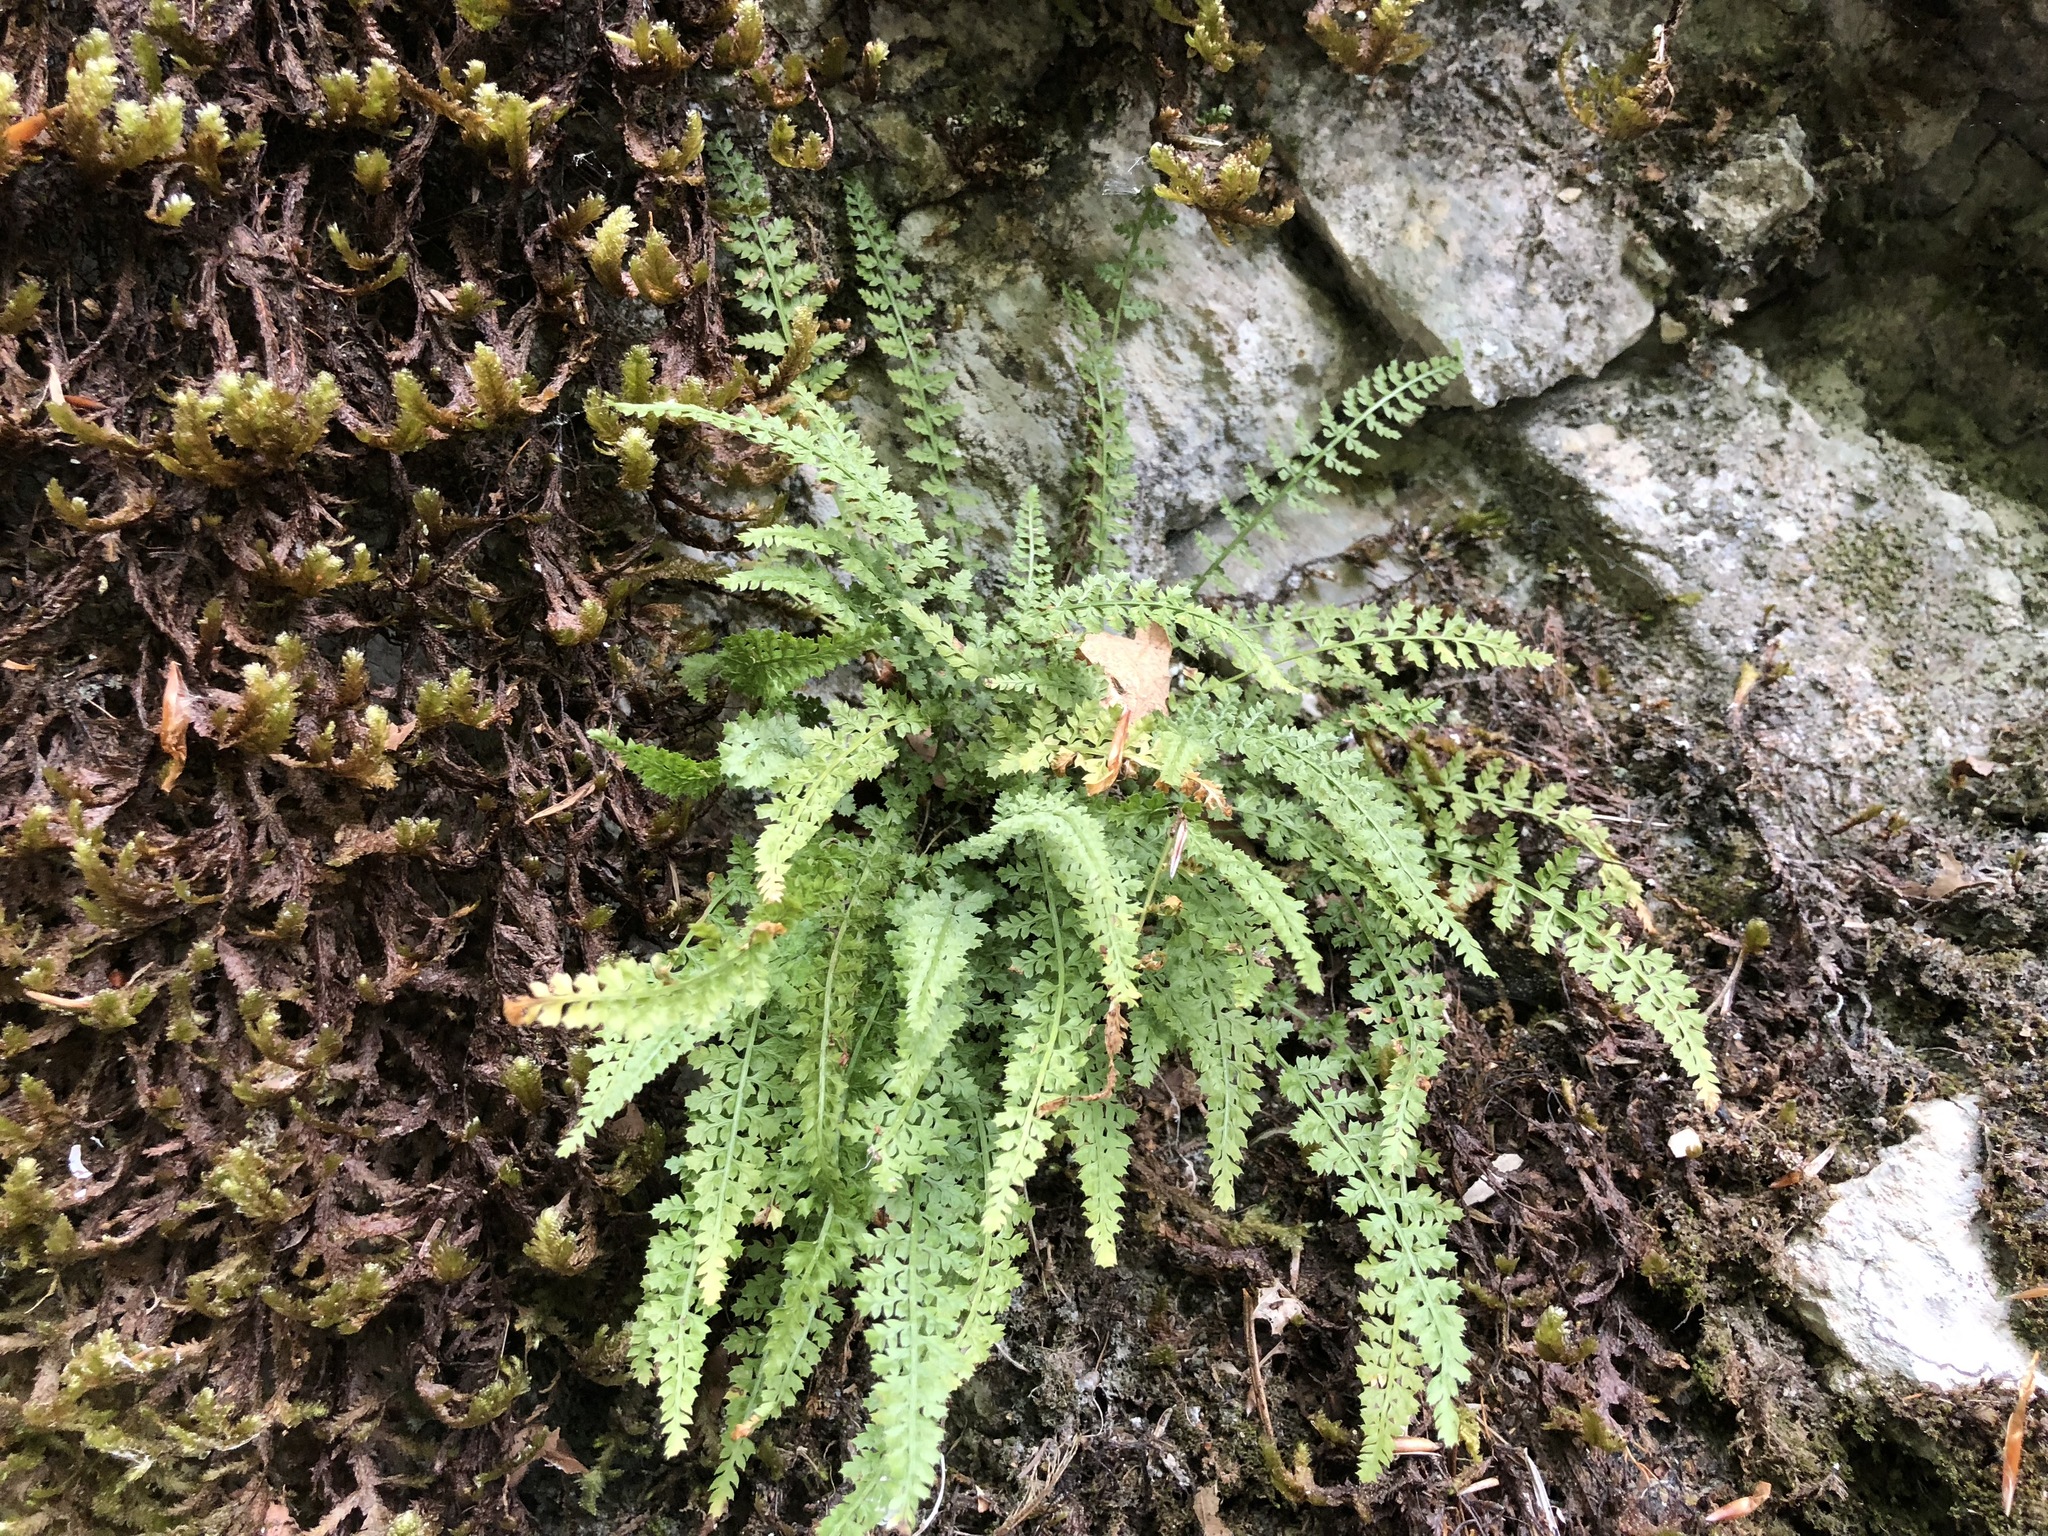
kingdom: Plantae
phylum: Tracheophyta
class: Polypodiopsida
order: Polypodiales
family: Aspleniaceae
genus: Asplenium
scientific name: Asplenium fontanum
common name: Fountain spleenwort
